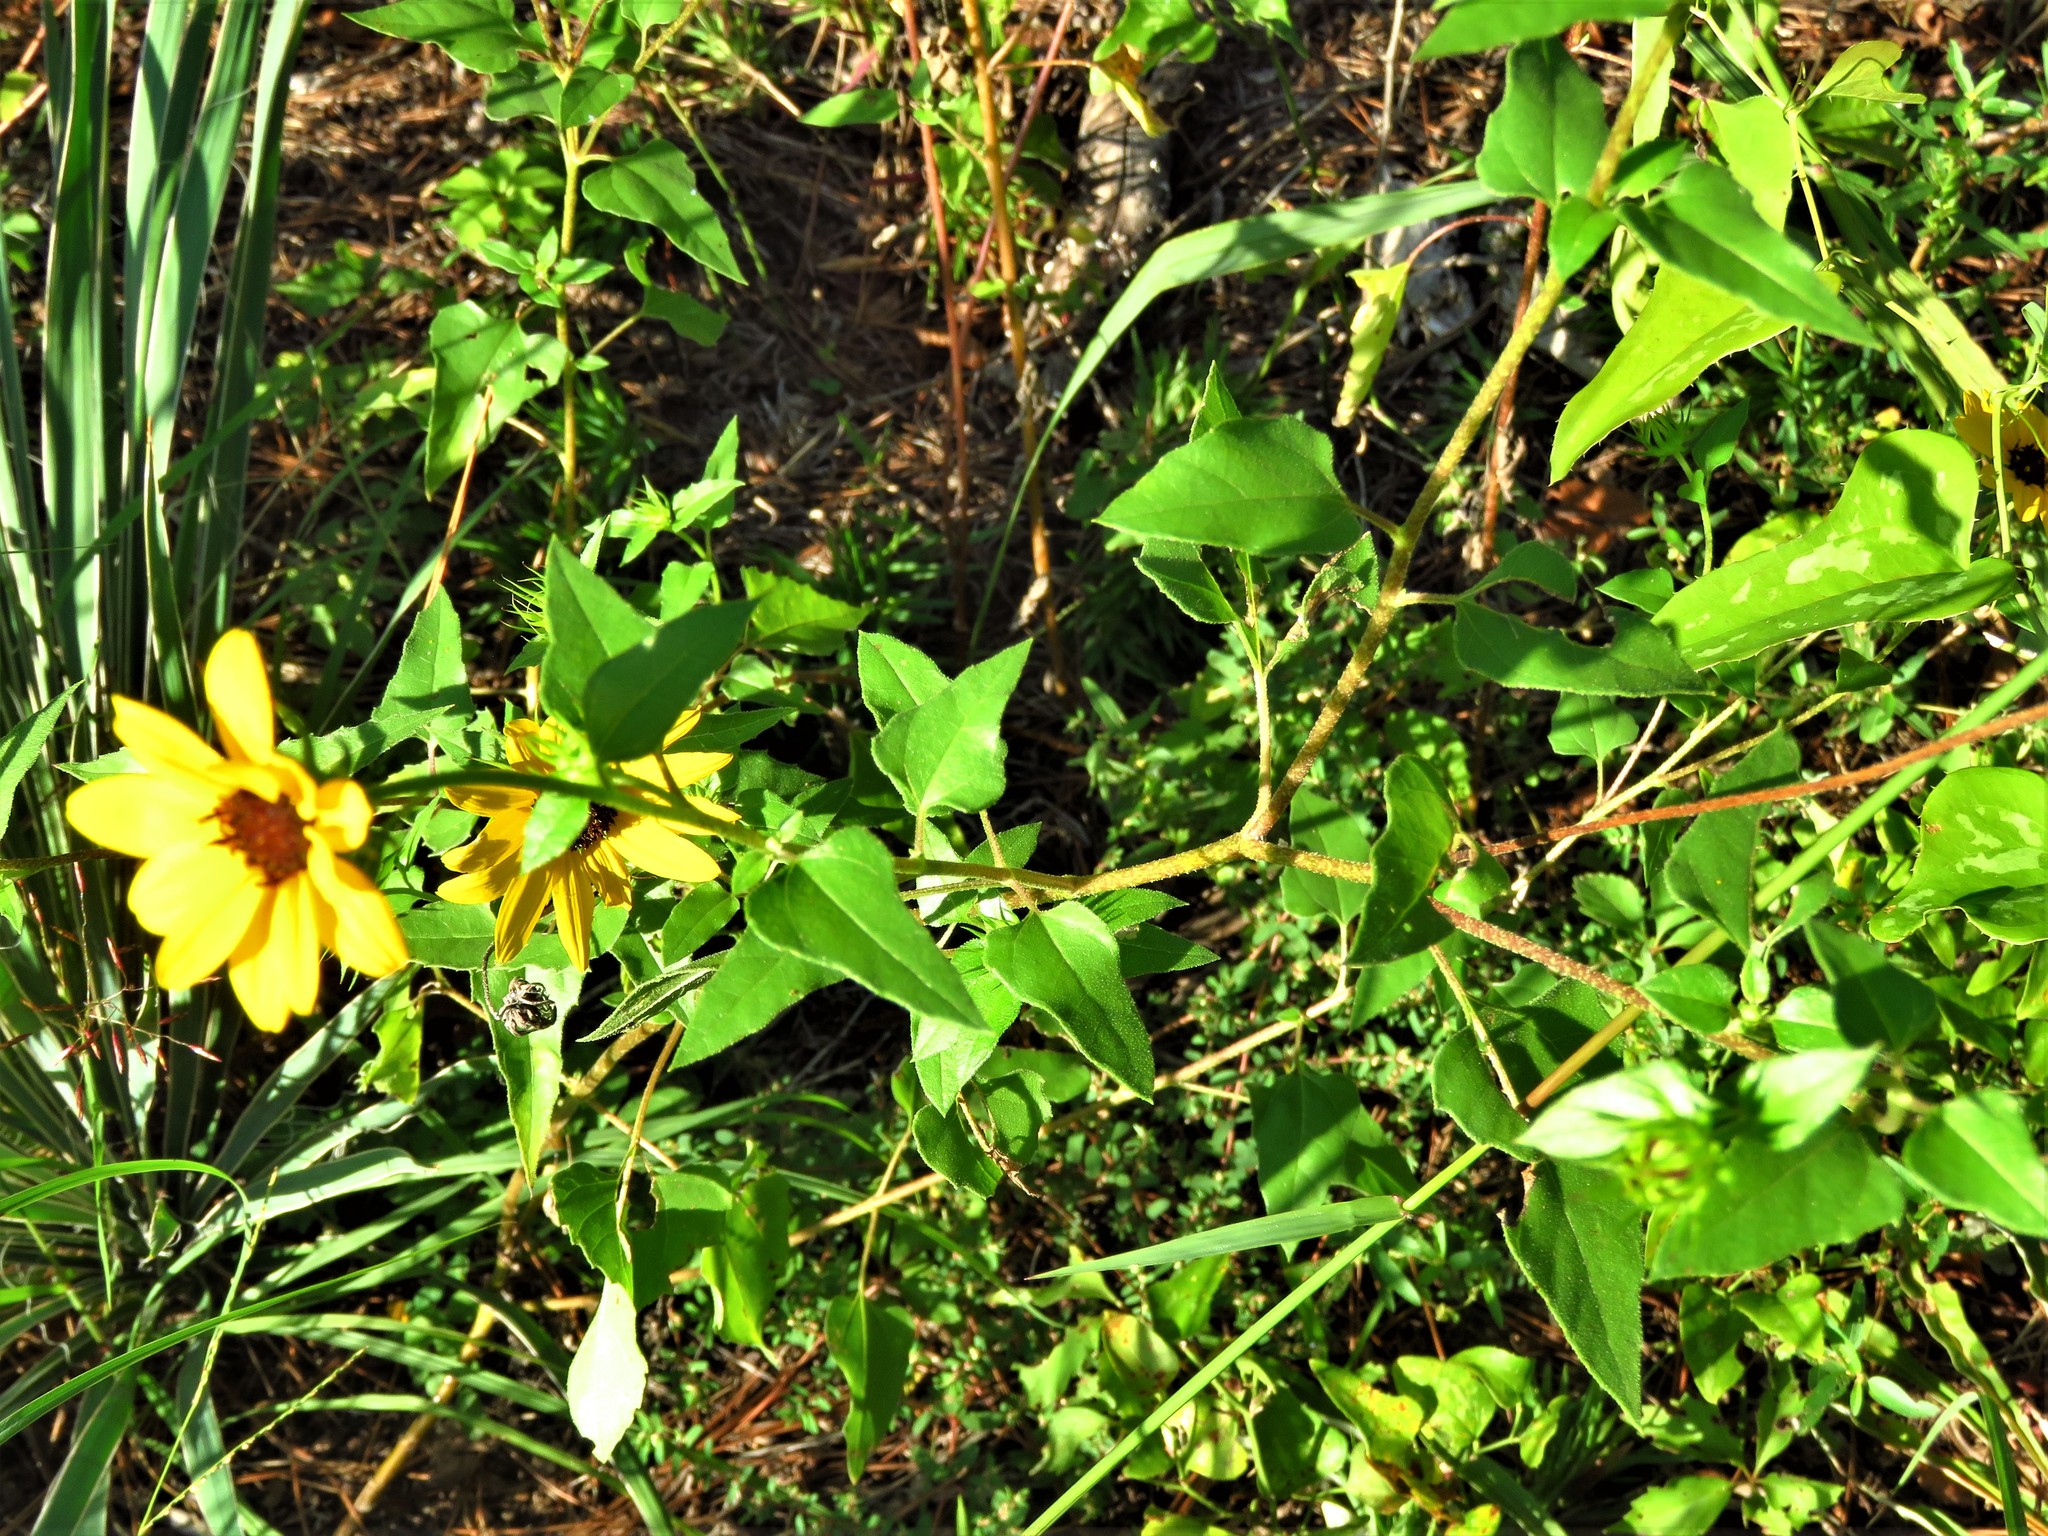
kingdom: Plantae
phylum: Tracheophyta
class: Magnoliopsida
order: Asterales
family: Asteraceae
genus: Helianthus
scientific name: Helianthus debilis
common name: Weak sunflower
